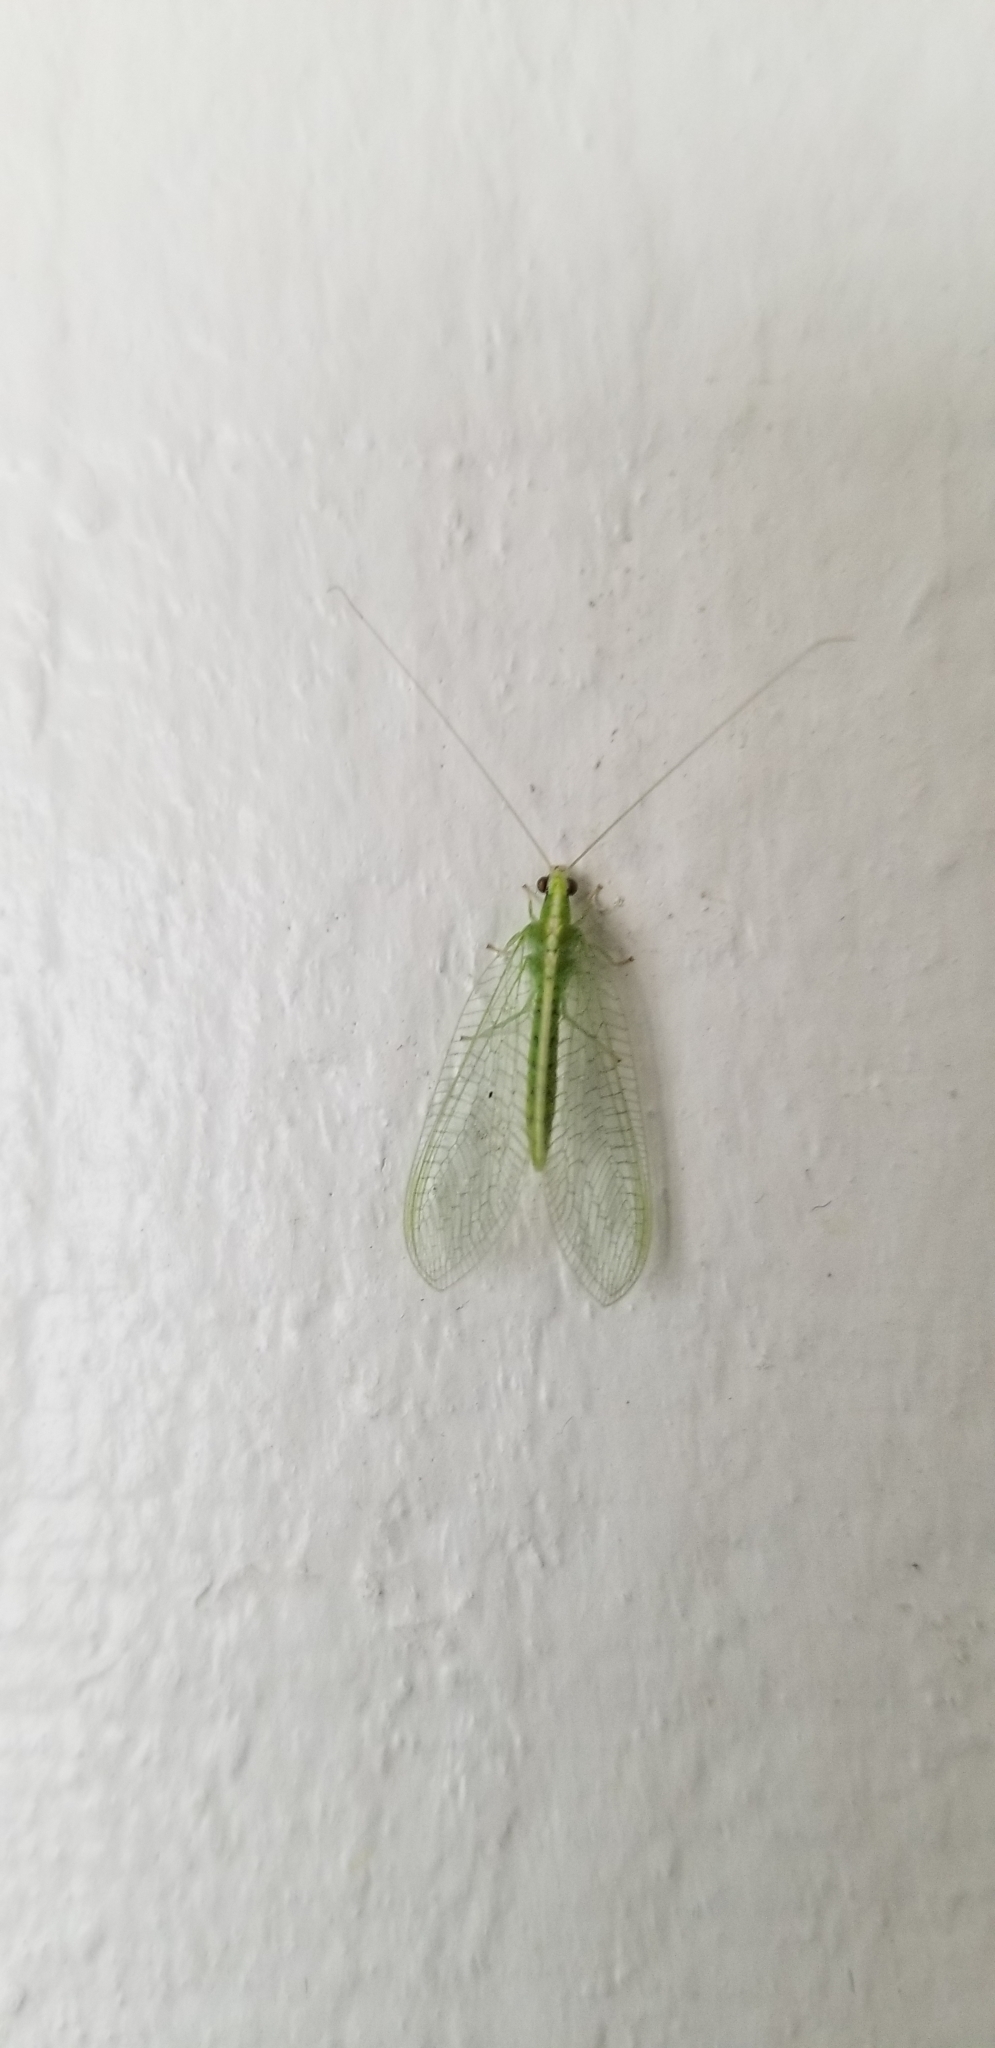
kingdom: Animalia
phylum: Arthropoda
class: Insecta
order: Neuroptera
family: Chrysopidae
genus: Chrysoperla
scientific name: Chrysoperla
